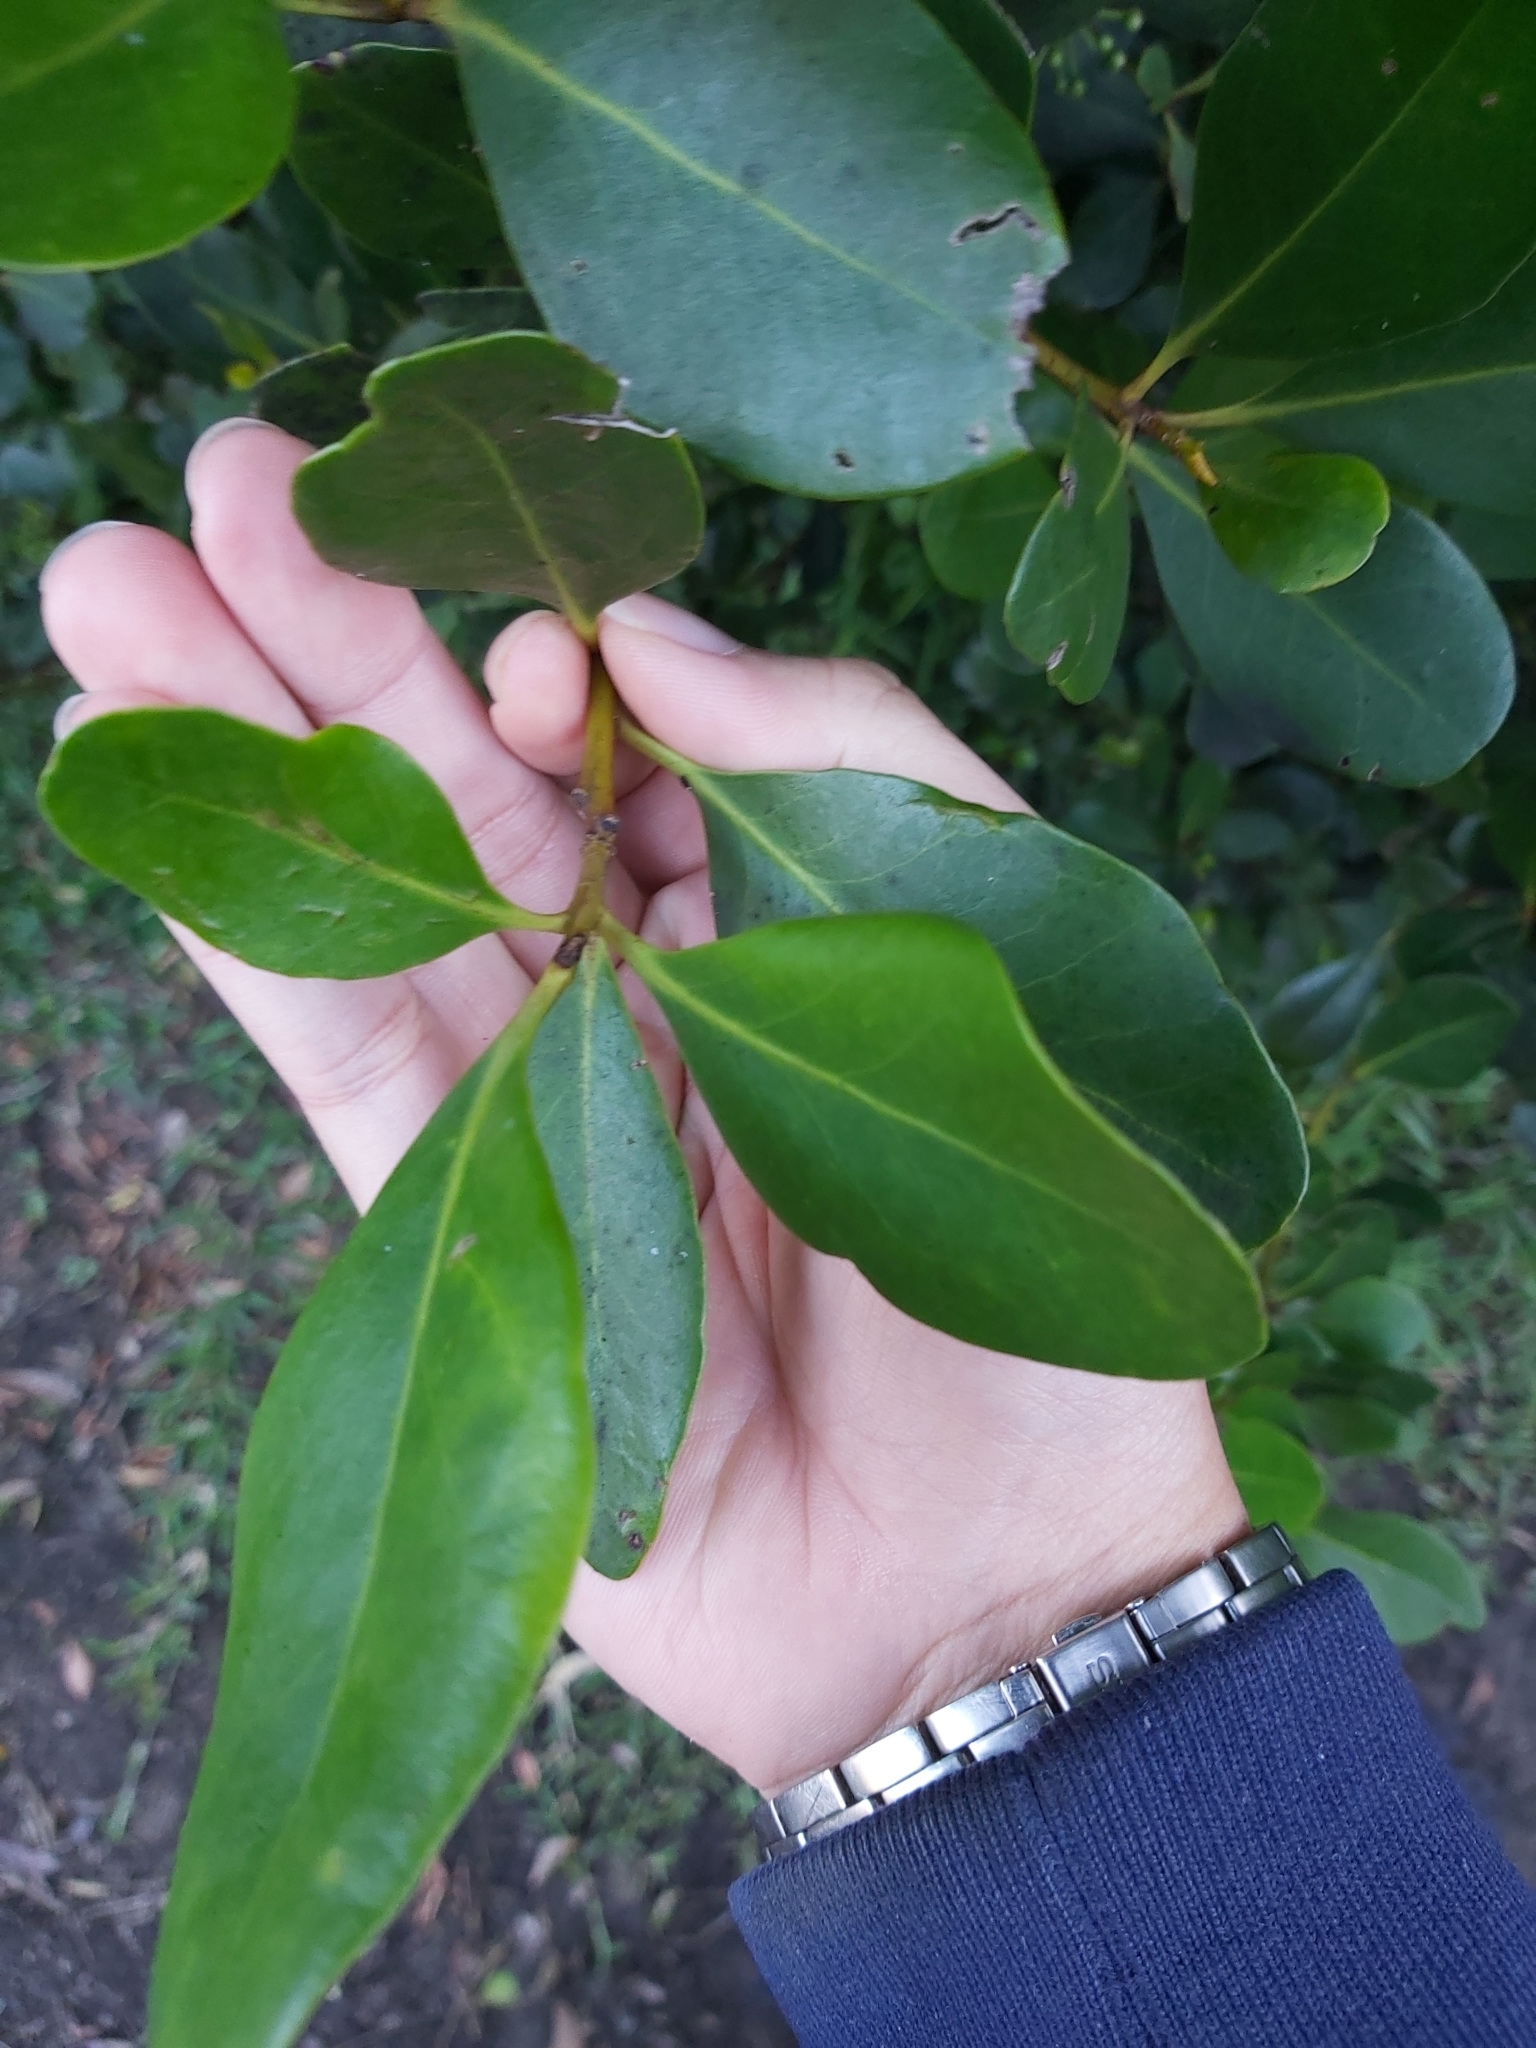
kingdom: Plantae
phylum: Tracheophyta
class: Magnoliopsida
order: Ericales
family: Primulaceae
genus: Aegiceras
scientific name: Aegiceras corniculatum
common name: River mangrove
